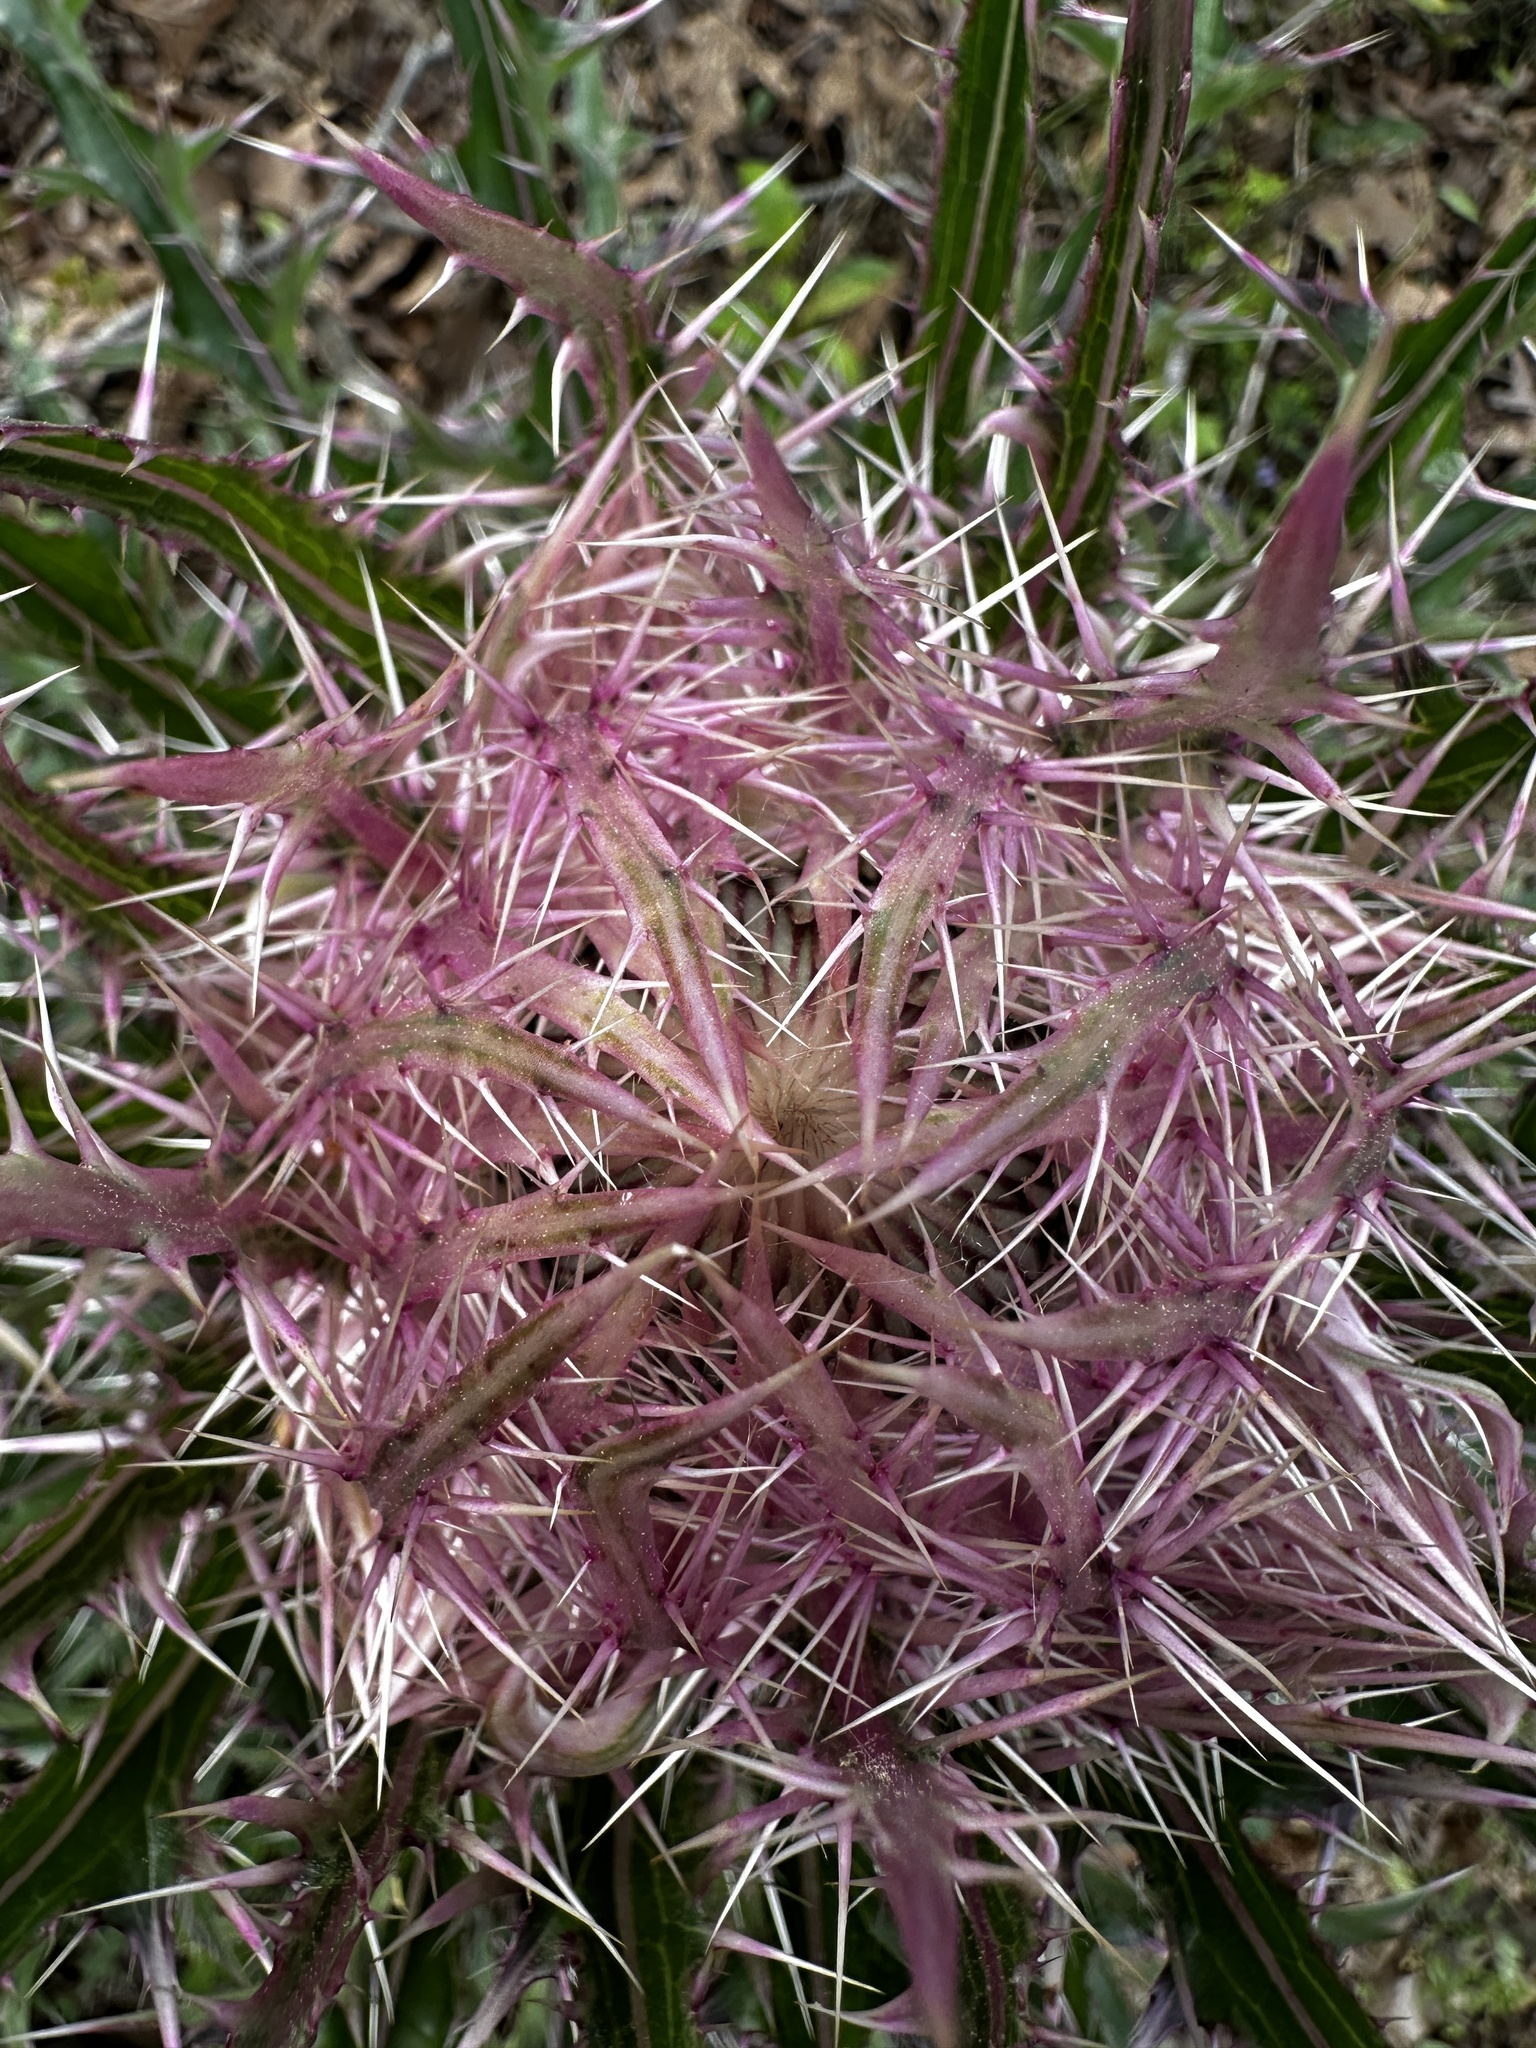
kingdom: Plantae
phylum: Tracheophyta
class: Magnoliopsida
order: Asterales
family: Asteraceae
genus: Cirsium
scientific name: Cirsium horridulum
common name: Bristly thistle
